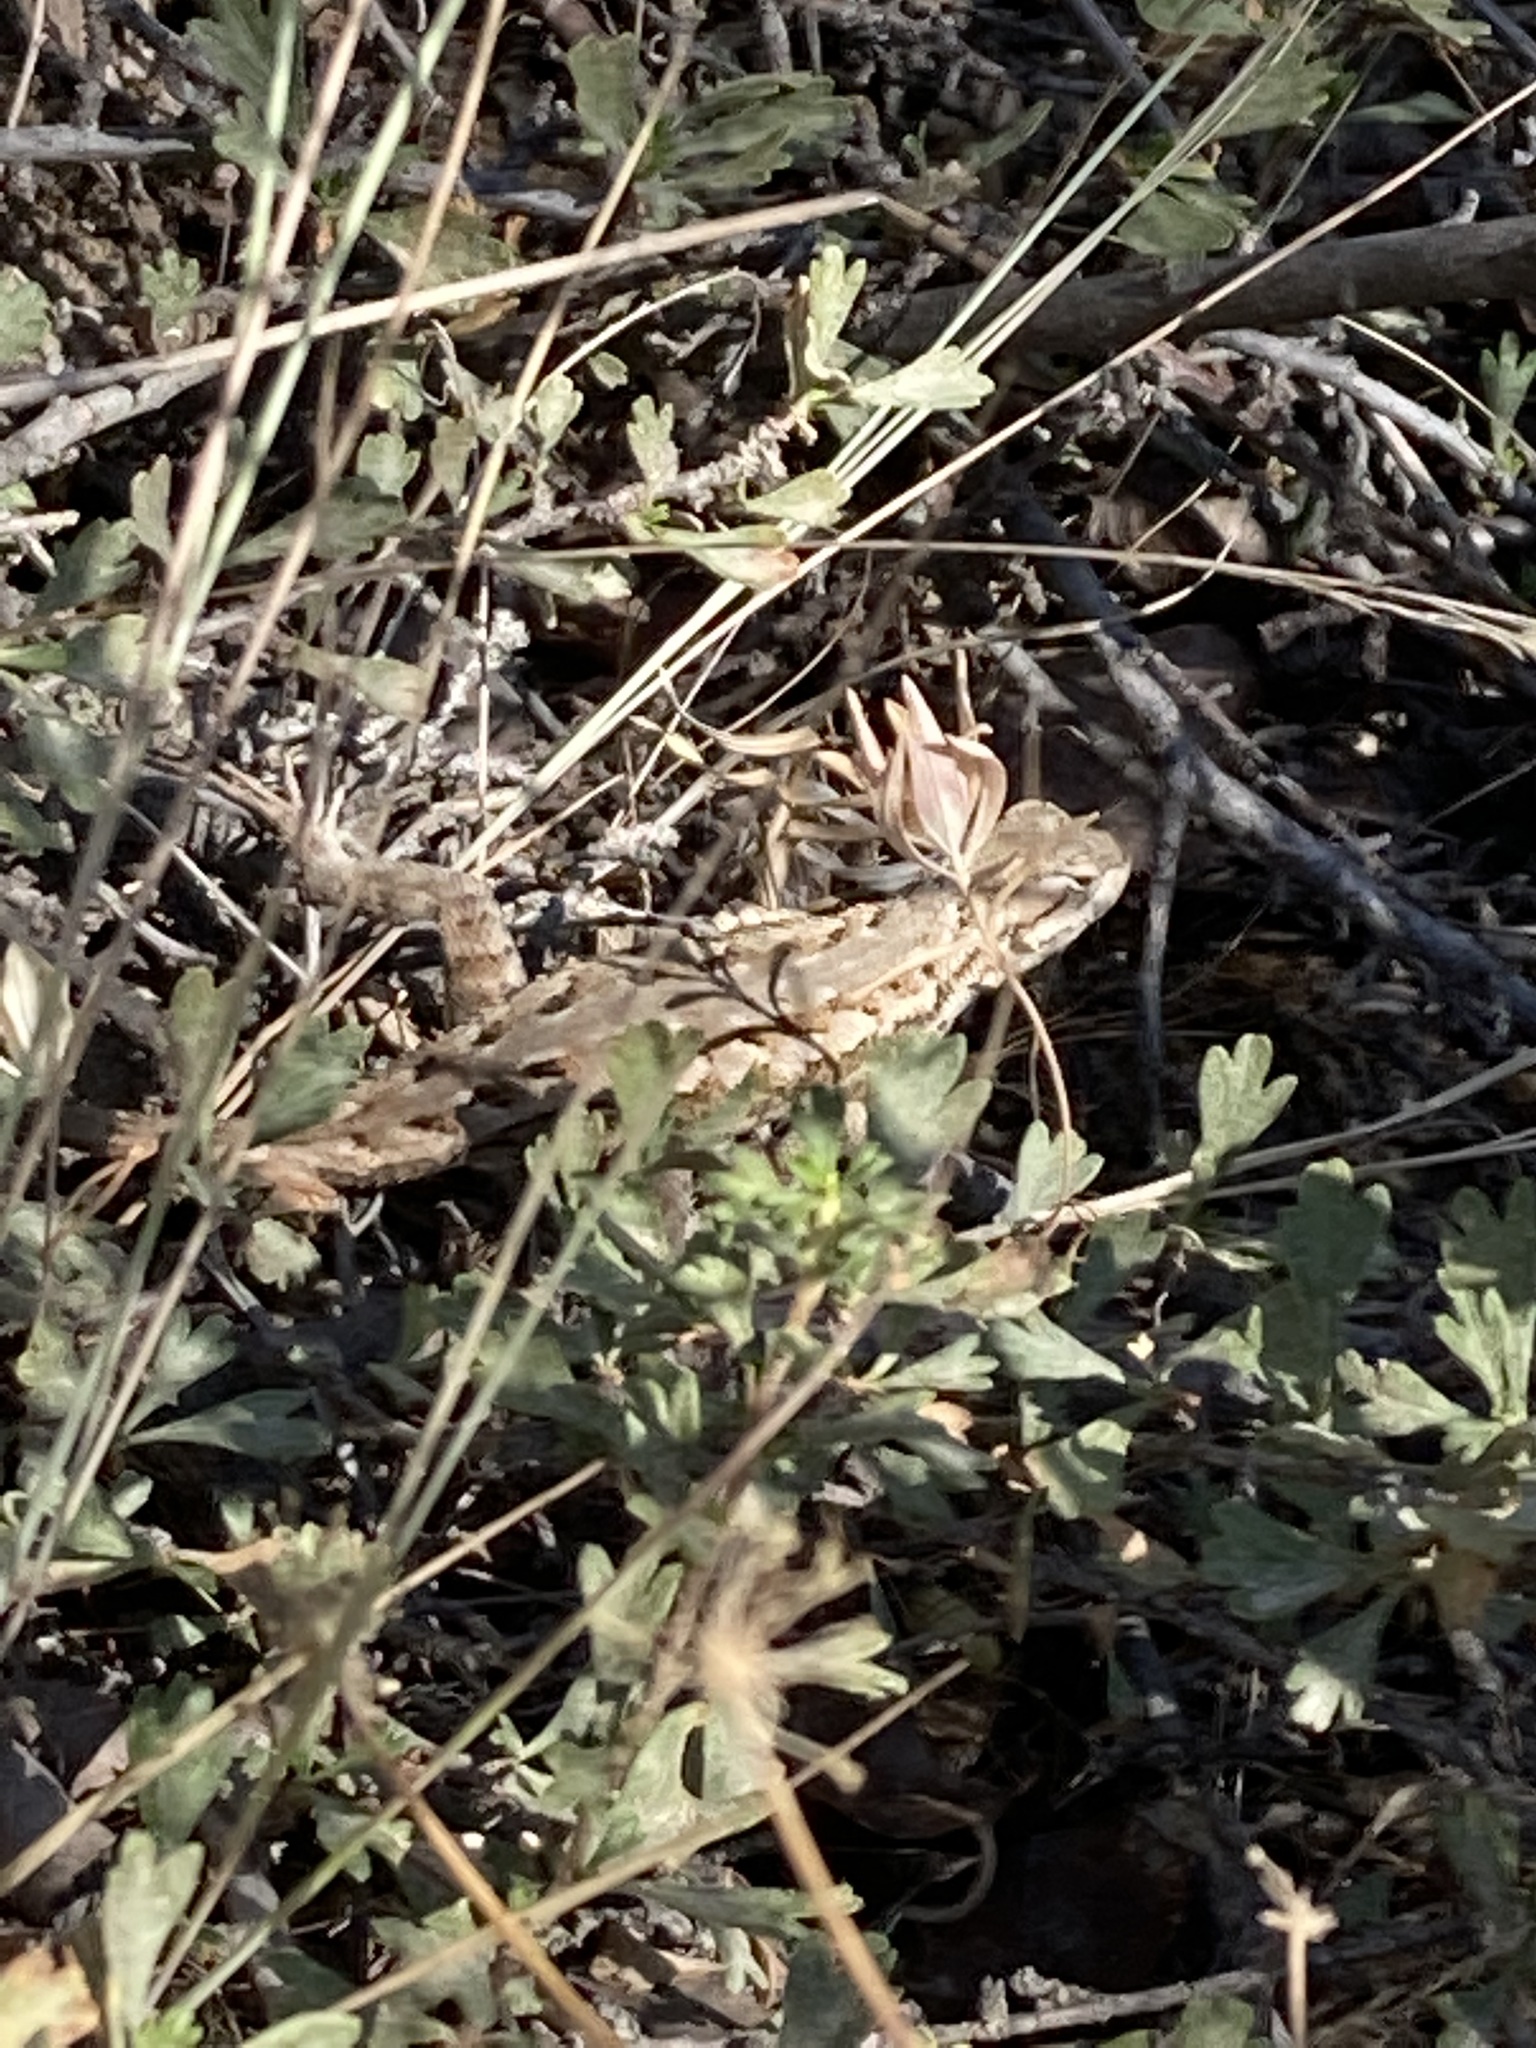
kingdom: Animalia
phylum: Chordata
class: Squamata
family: Phrynosomatidae
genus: Sceloporus
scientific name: Sceloporus occidentalis
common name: Western fence lizard
